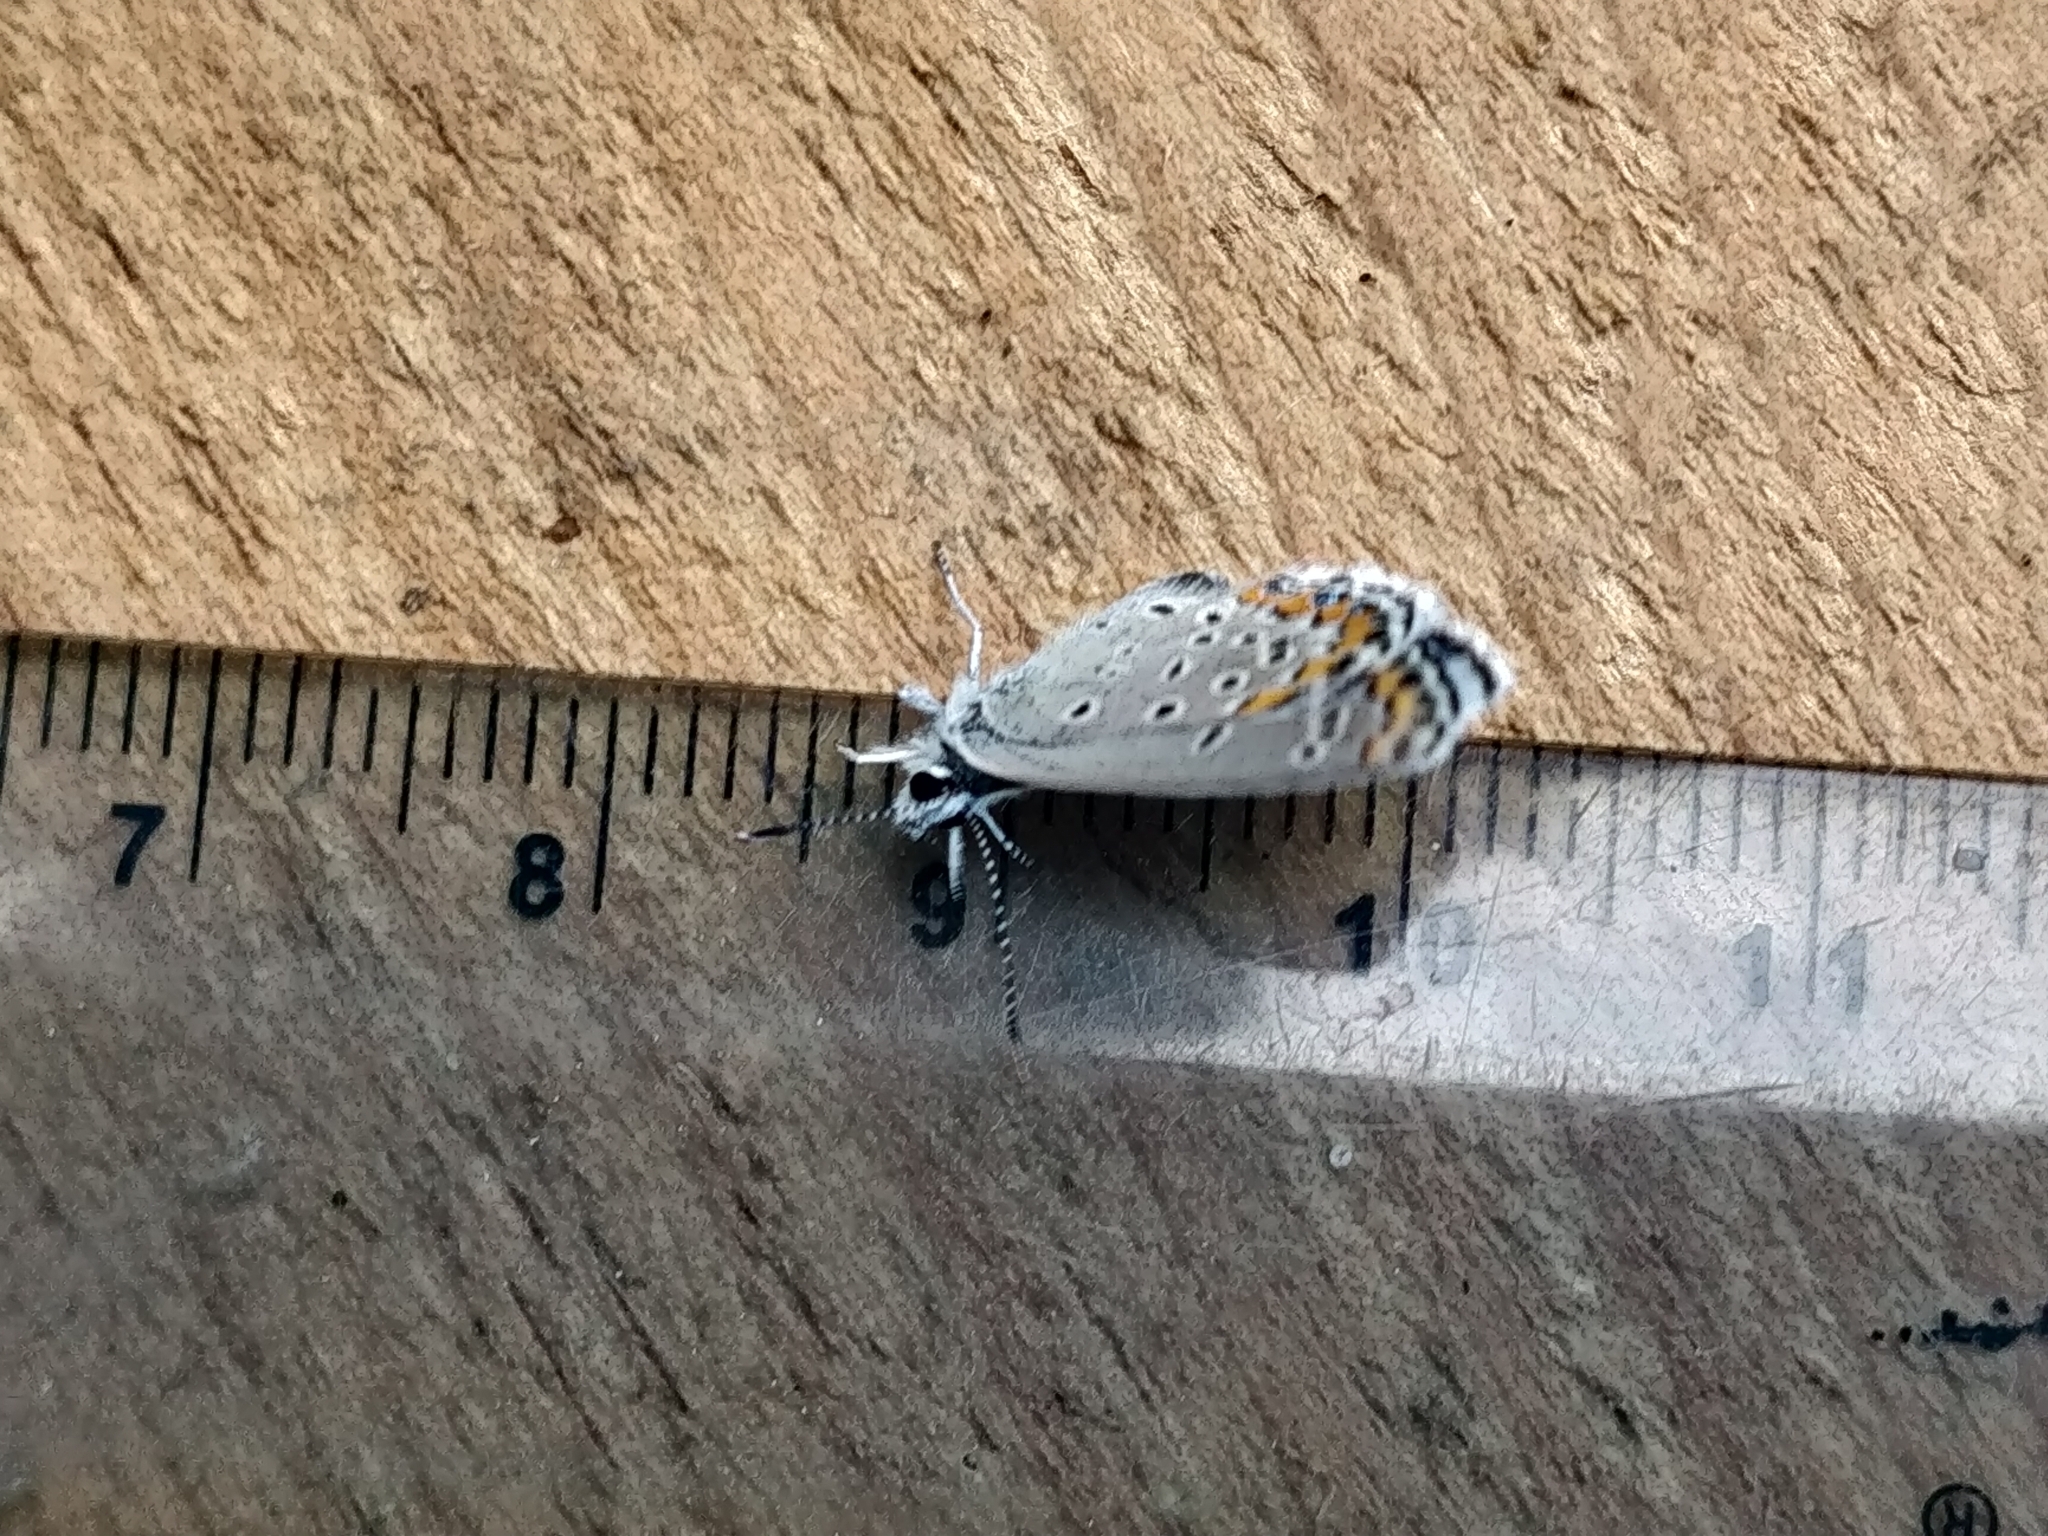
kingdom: Animalia
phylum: Arthropoda
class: Insecta
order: Lepidoptera
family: Lycaenidae
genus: Lycaeides
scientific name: Lycaeides melissa
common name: Melissa blue
